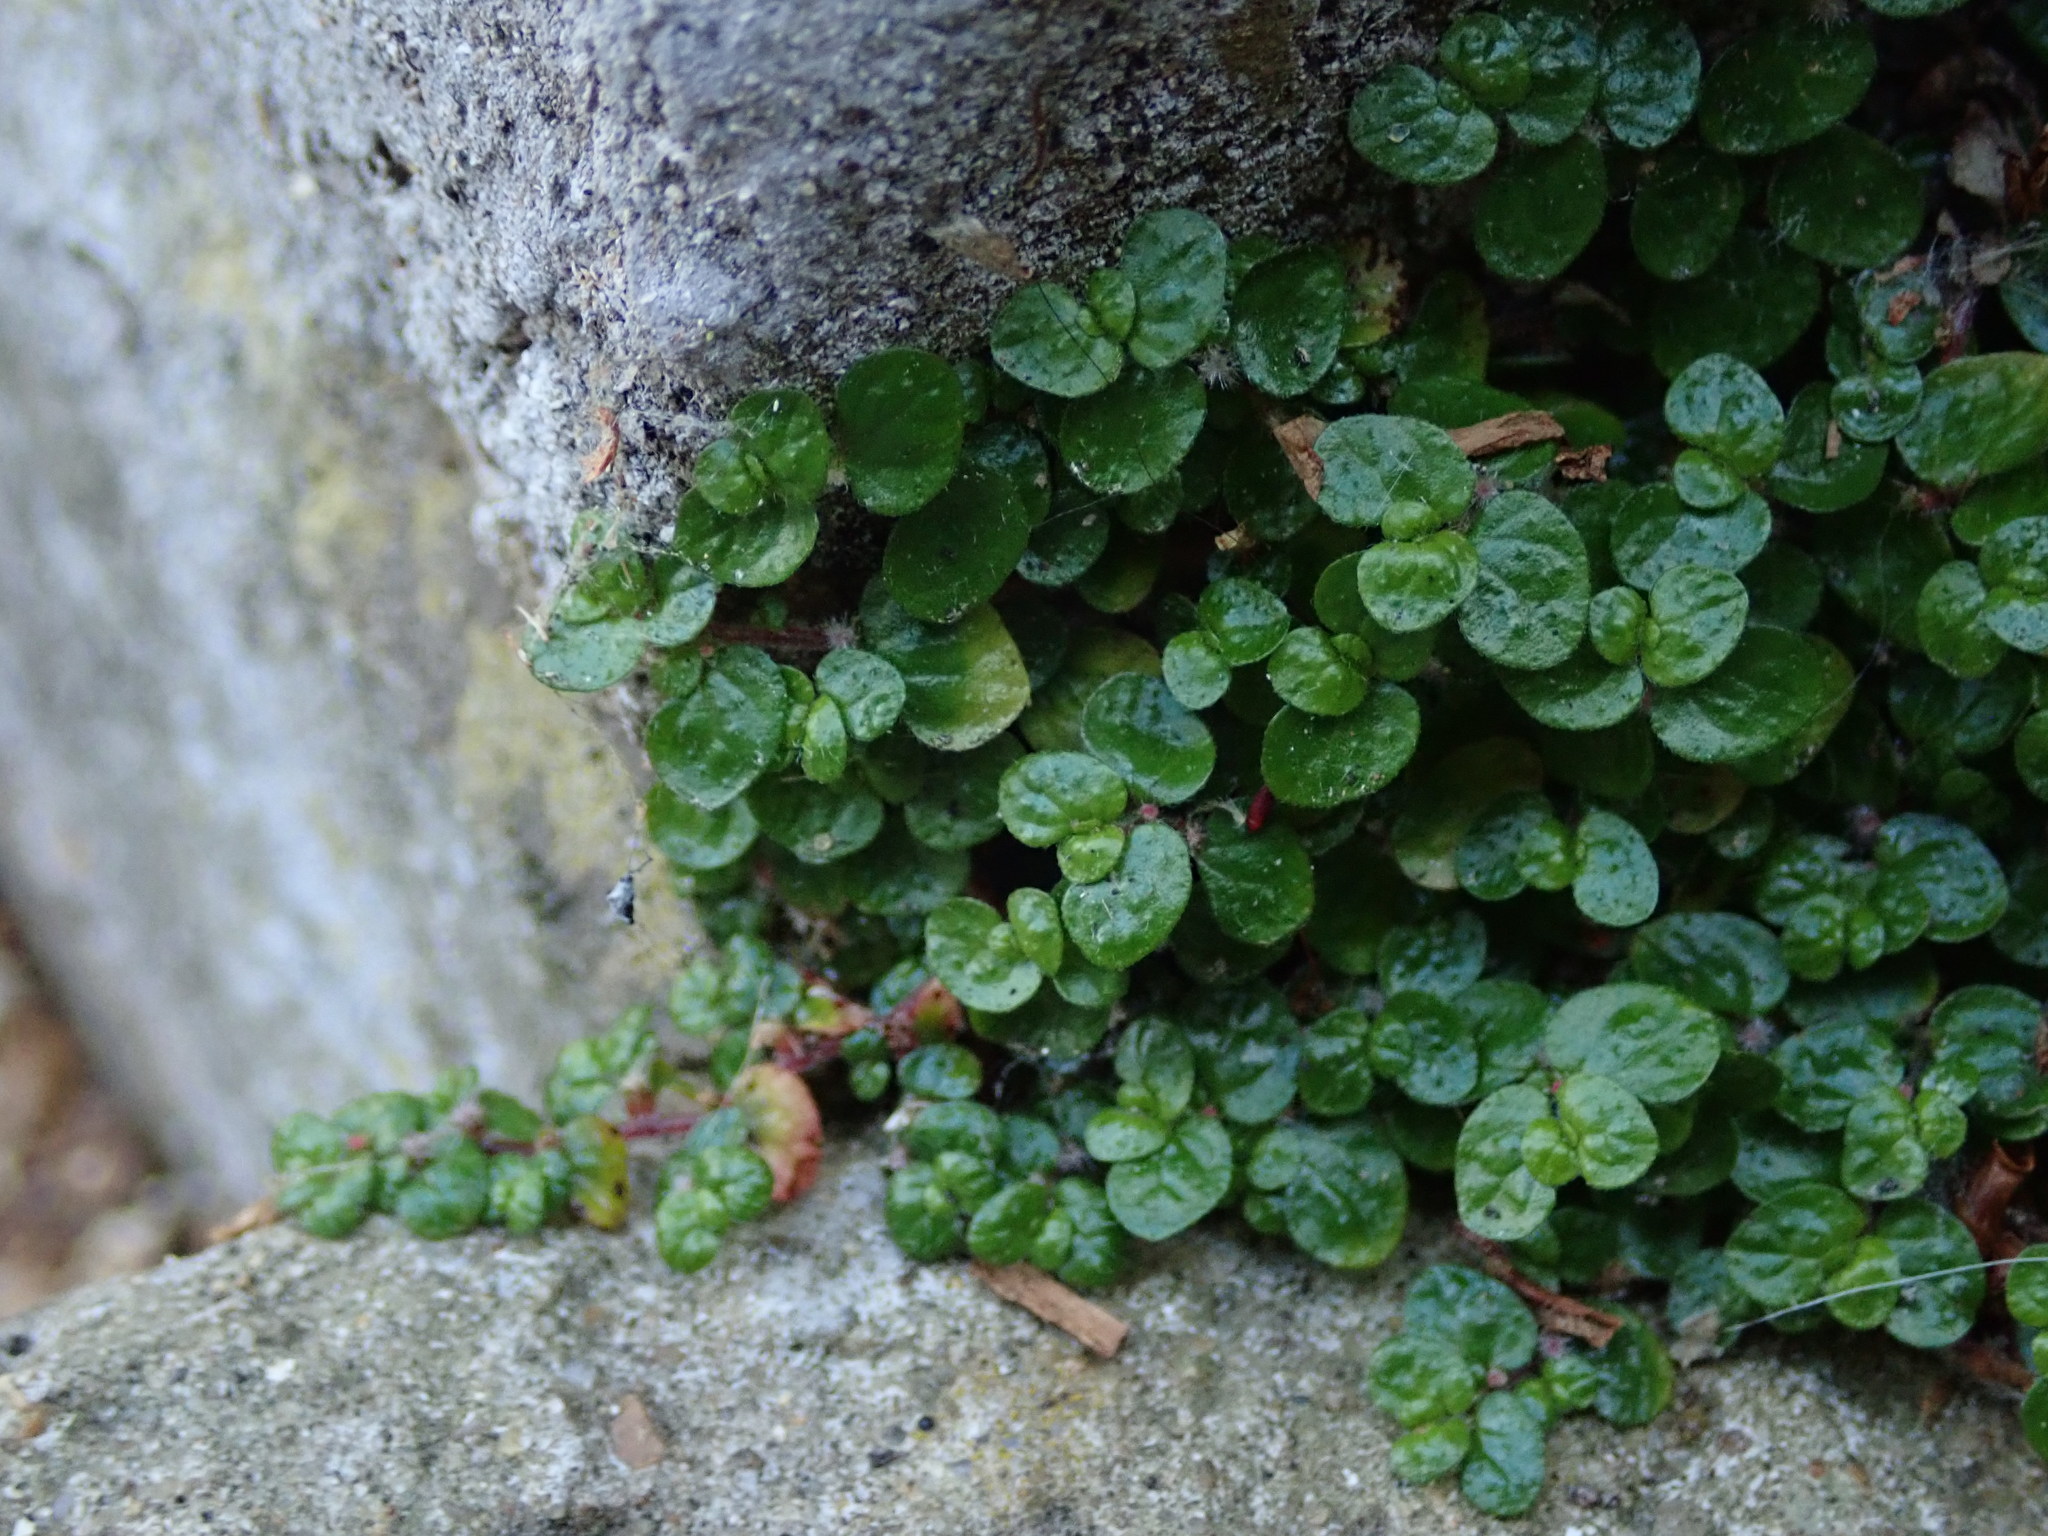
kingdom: Plantae
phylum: Tracheophyta
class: Magnoliopsida
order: Rosales
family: Urticaceae
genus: Soleirolia
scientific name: Soleirolia soleirolii
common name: Mind-your-own-business
